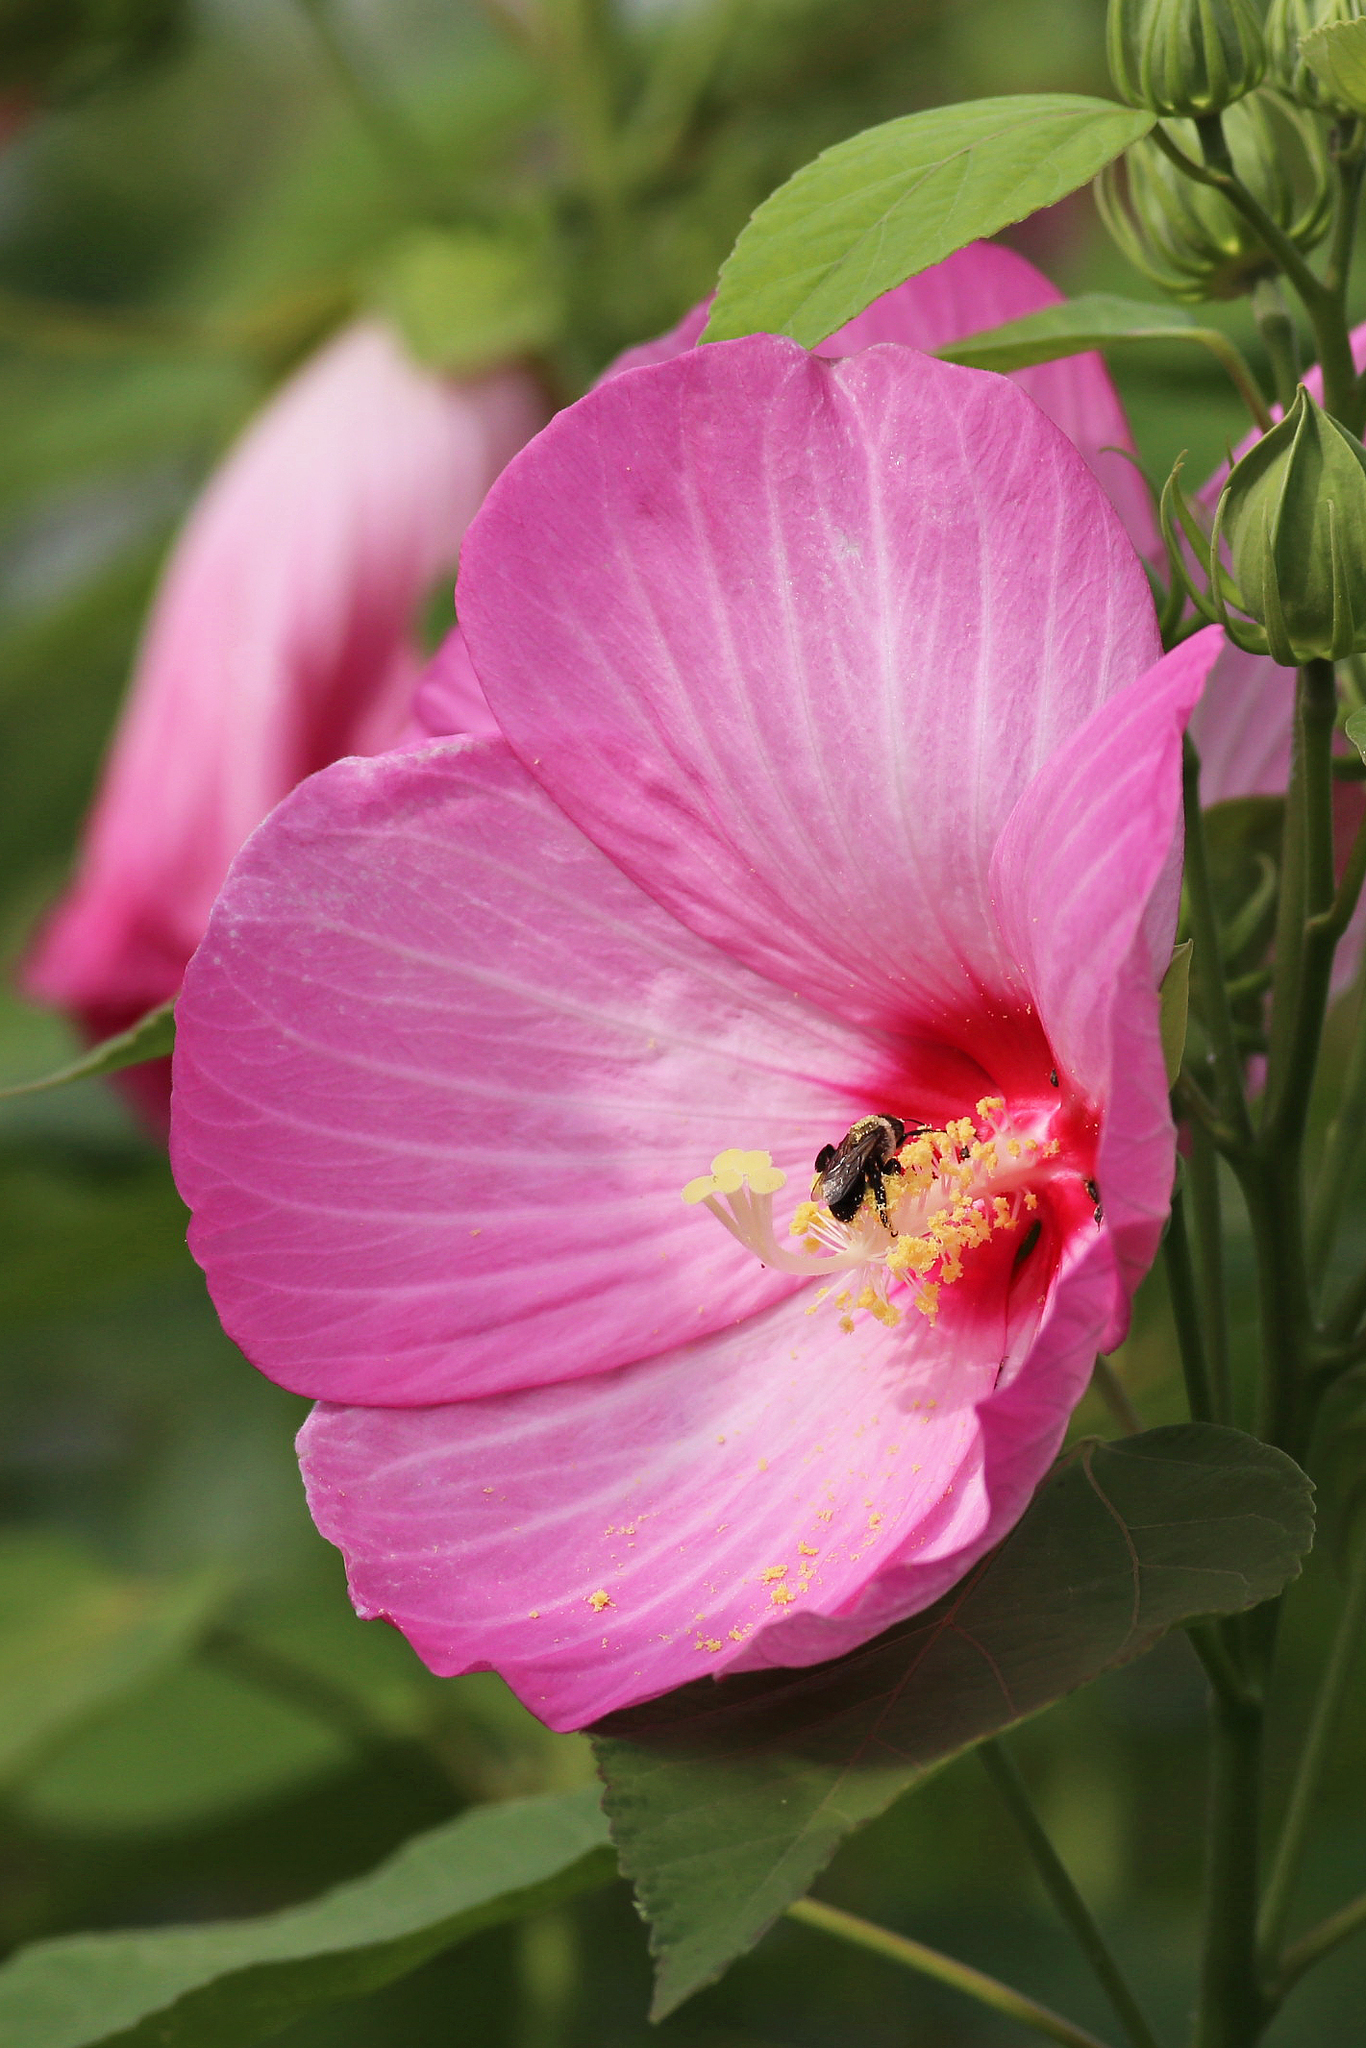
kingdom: Plantae
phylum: Tracheophyta
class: Magnoliopsida
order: Malvales
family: Malvaceae
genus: Hibiscus
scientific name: Hibiscus moscheutos
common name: Common rose-mallow
